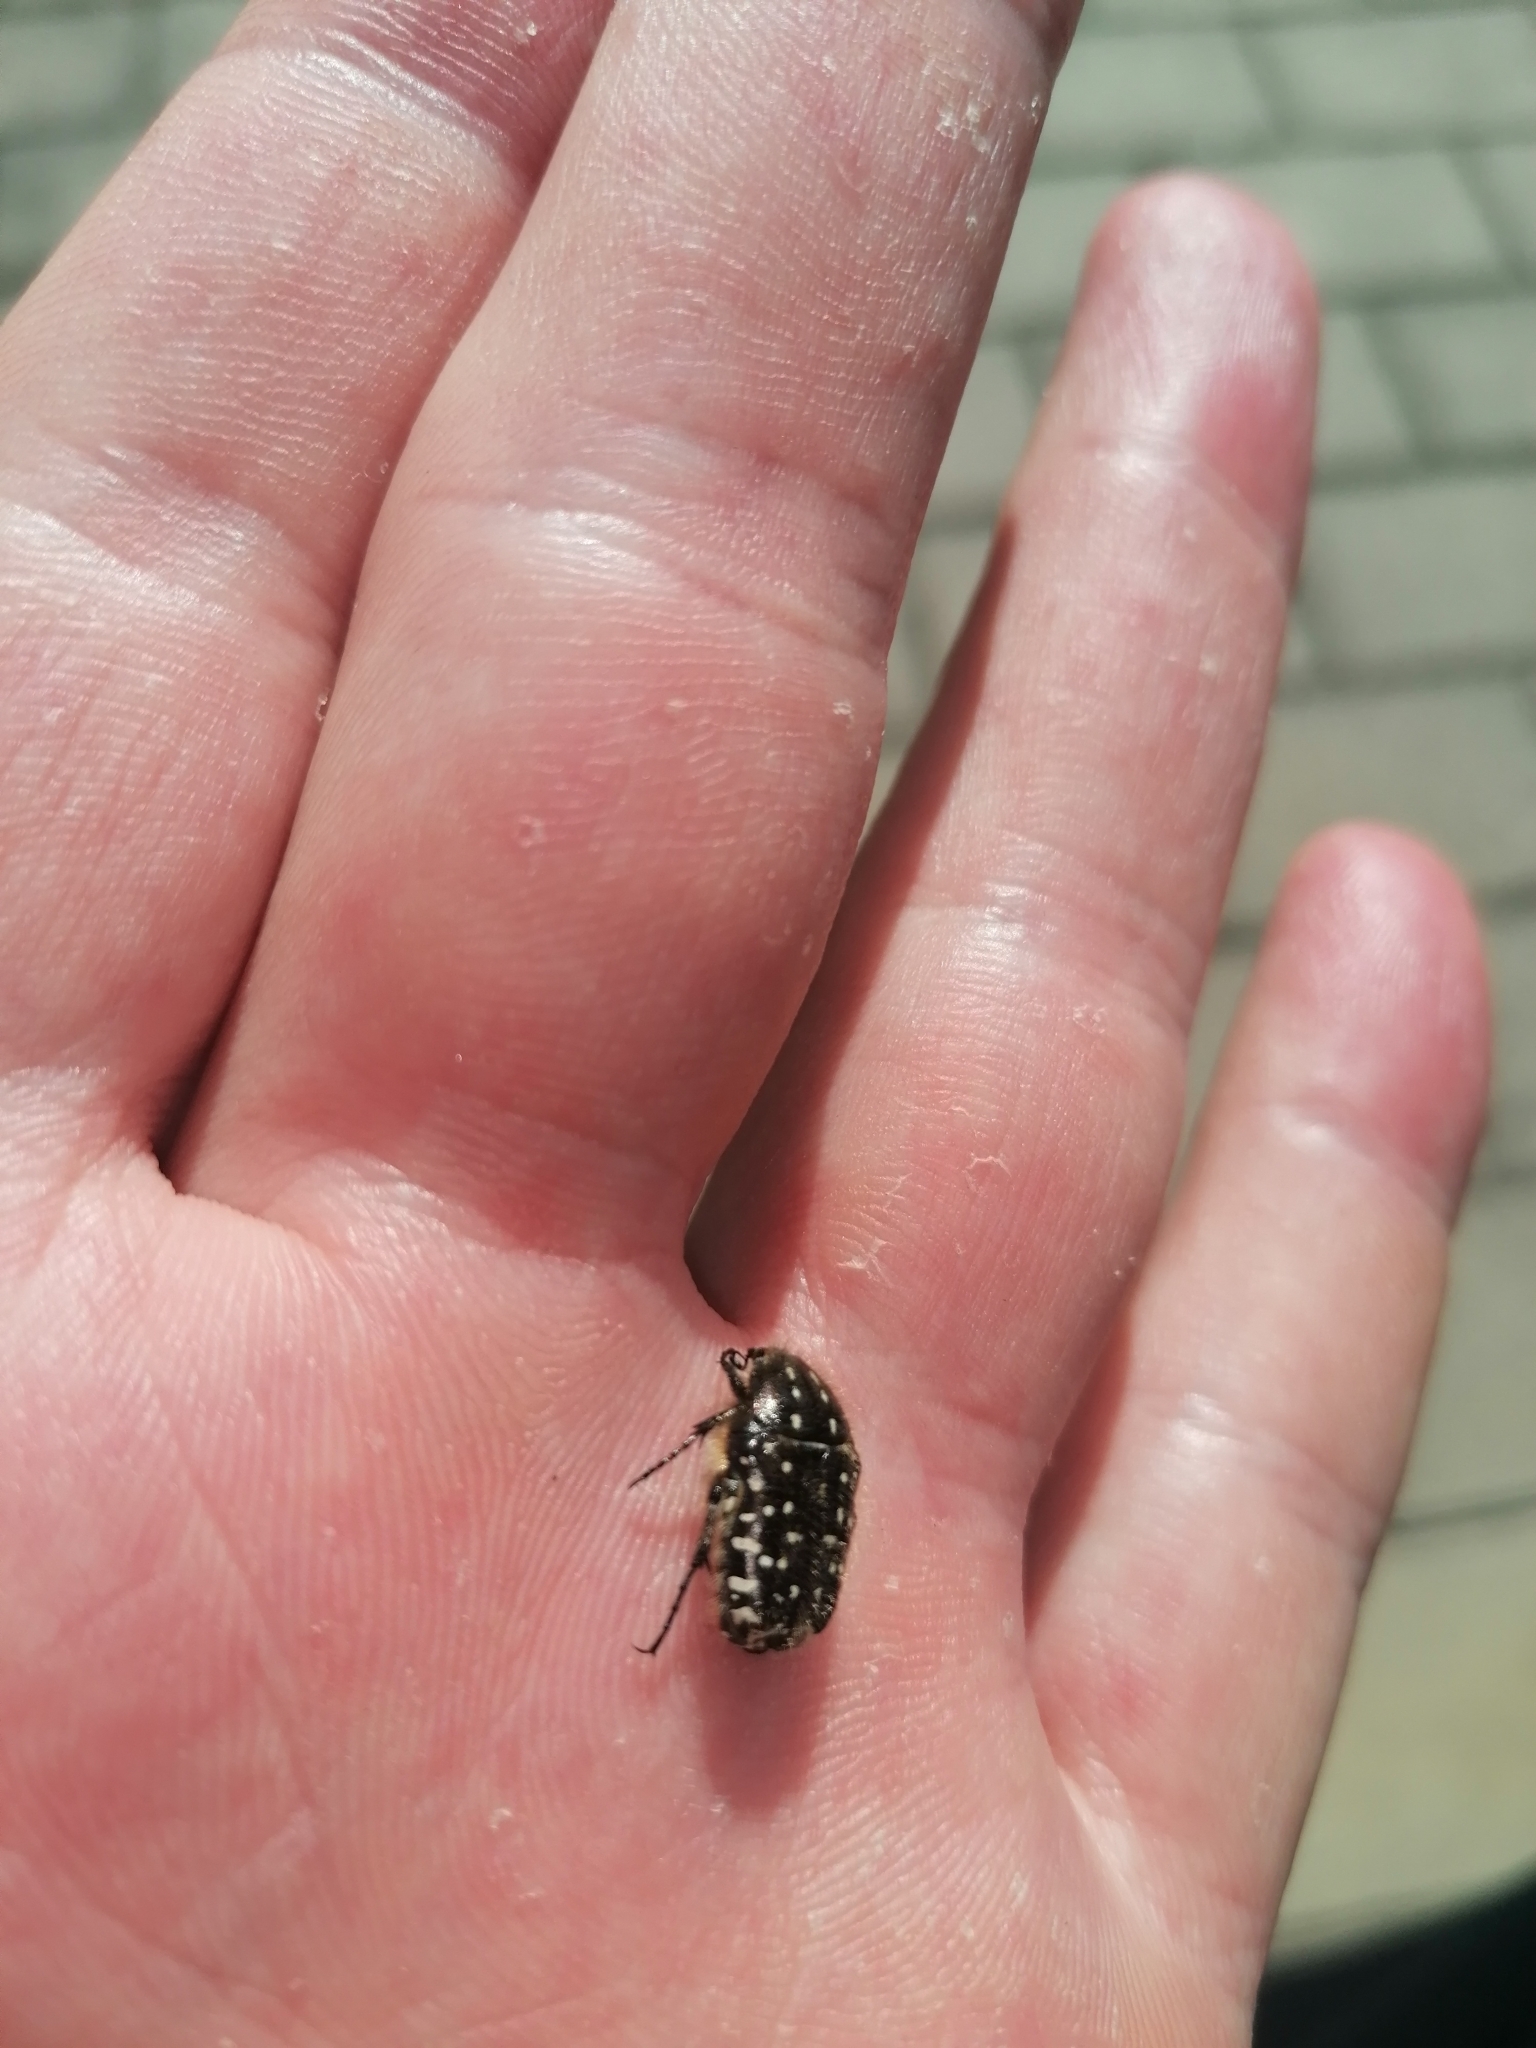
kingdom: Animalia
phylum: Arthropoda
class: Insecta
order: Coleoptera
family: Scarabaeidae
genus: Oxythyrea
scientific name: Oxythyrea funesta
